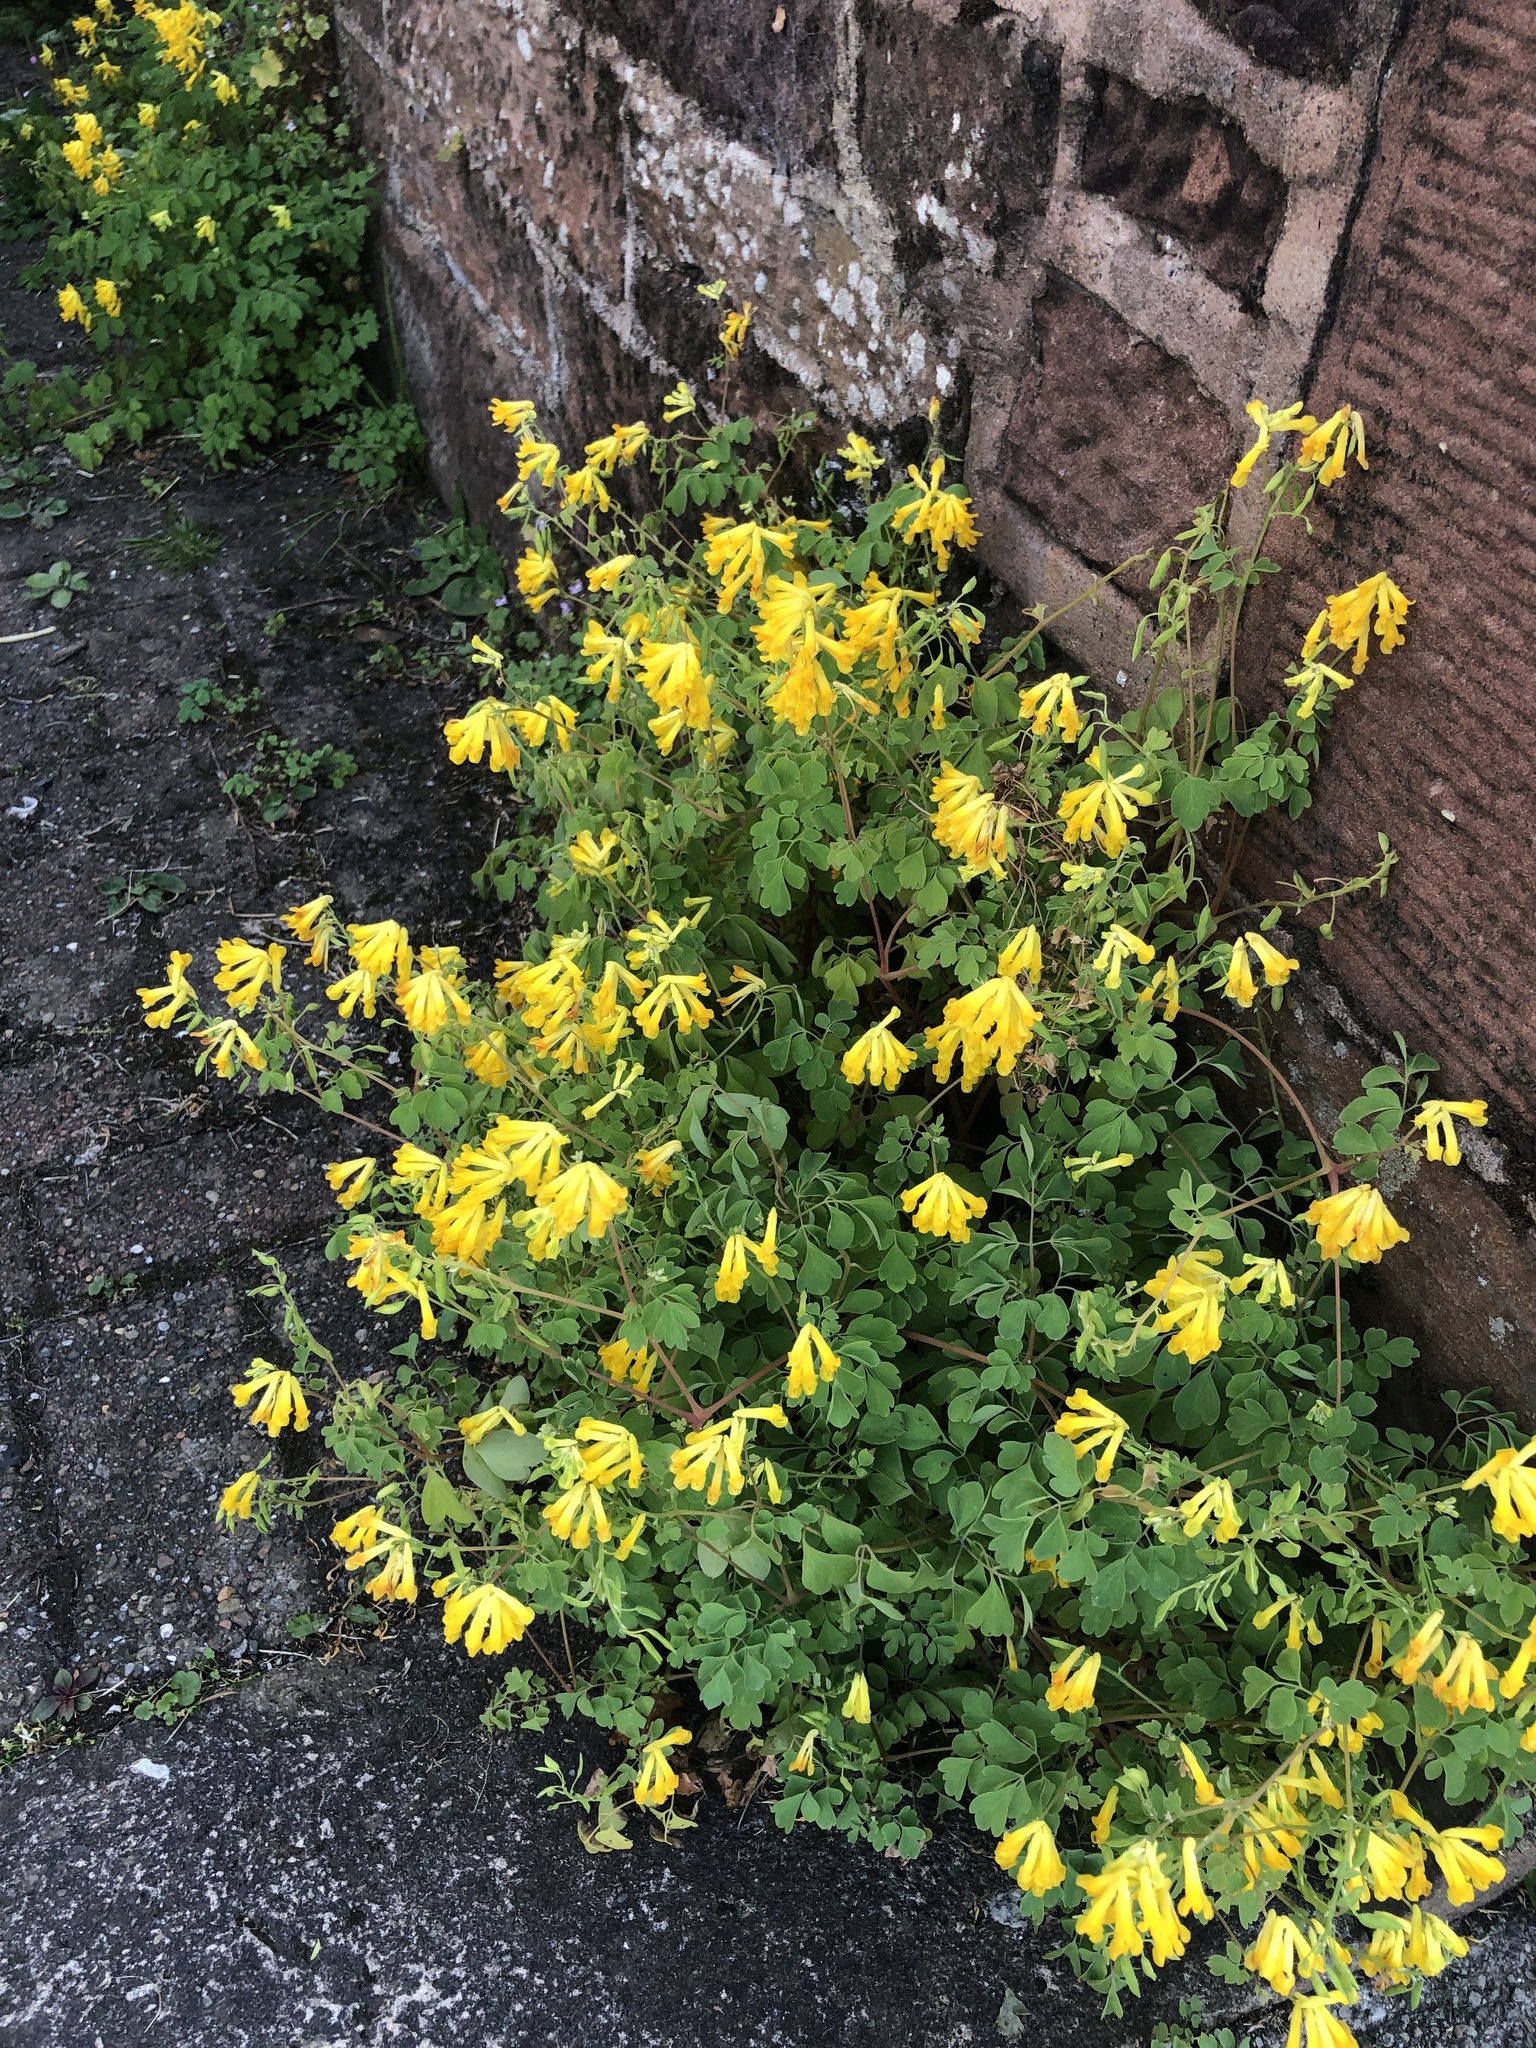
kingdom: Plantae
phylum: Tracheophyta
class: Magnoliopsida
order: Ranunculales
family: Papaveraceae
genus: Pseudofumaria
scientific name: Pseudofumaria lutea
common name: Yellow corydalis
